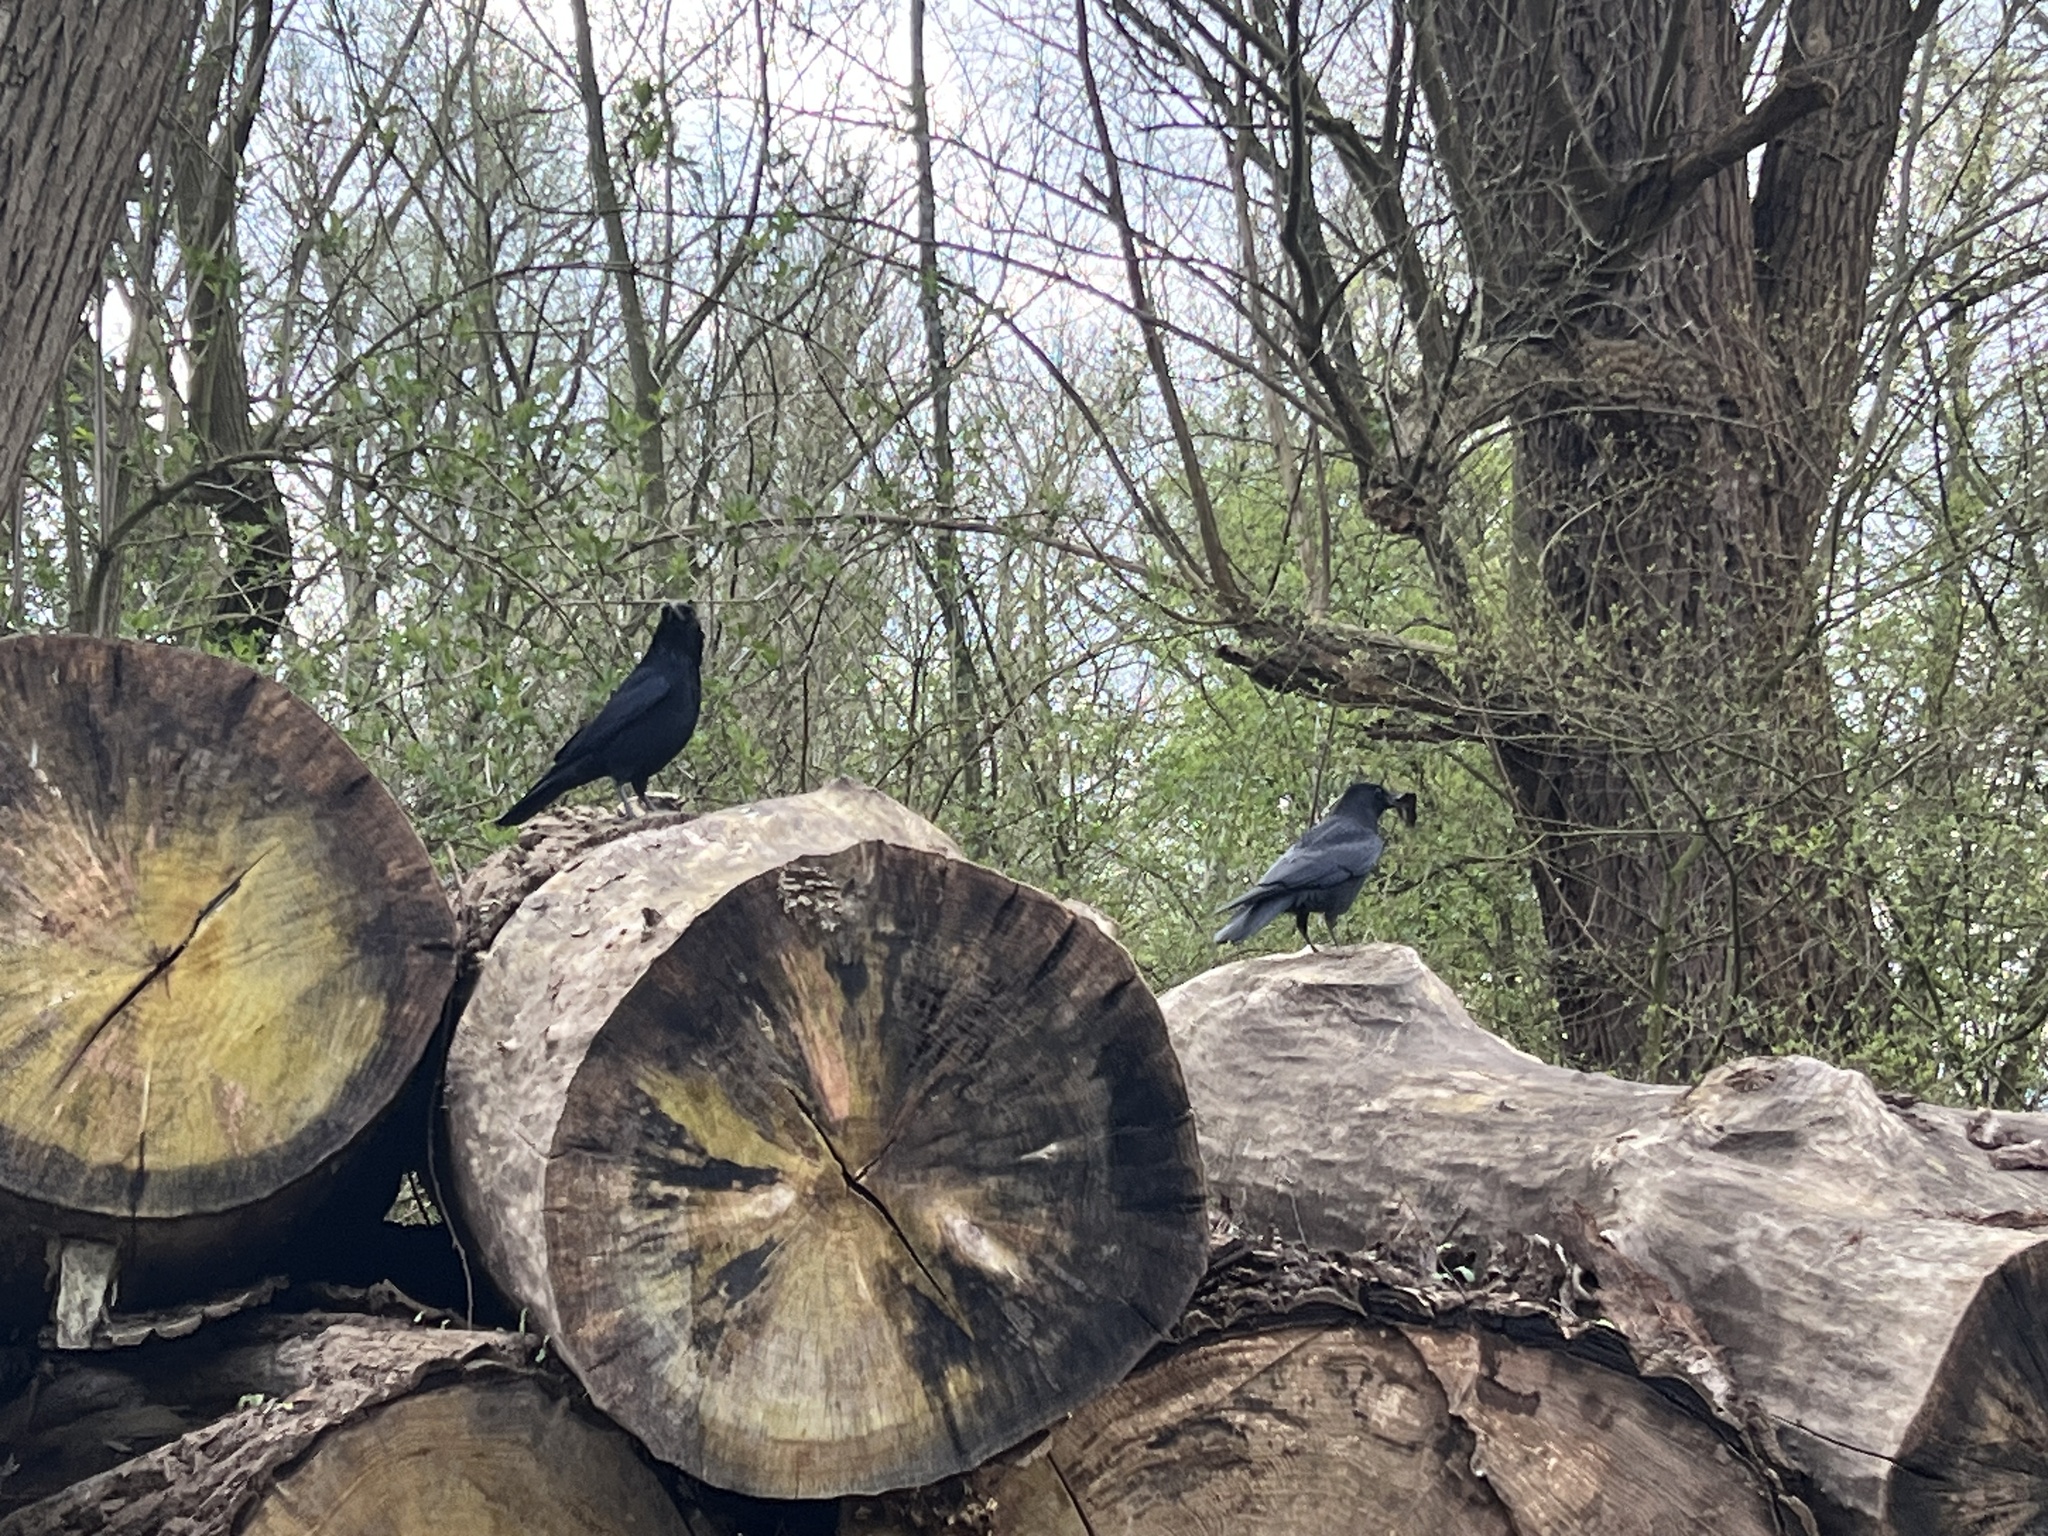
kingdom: Animalia
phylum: Chordata
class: Aves
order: Passeriformes
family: Corvidae
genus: Corvus
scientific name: Corvus corone
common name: Carrion crow
